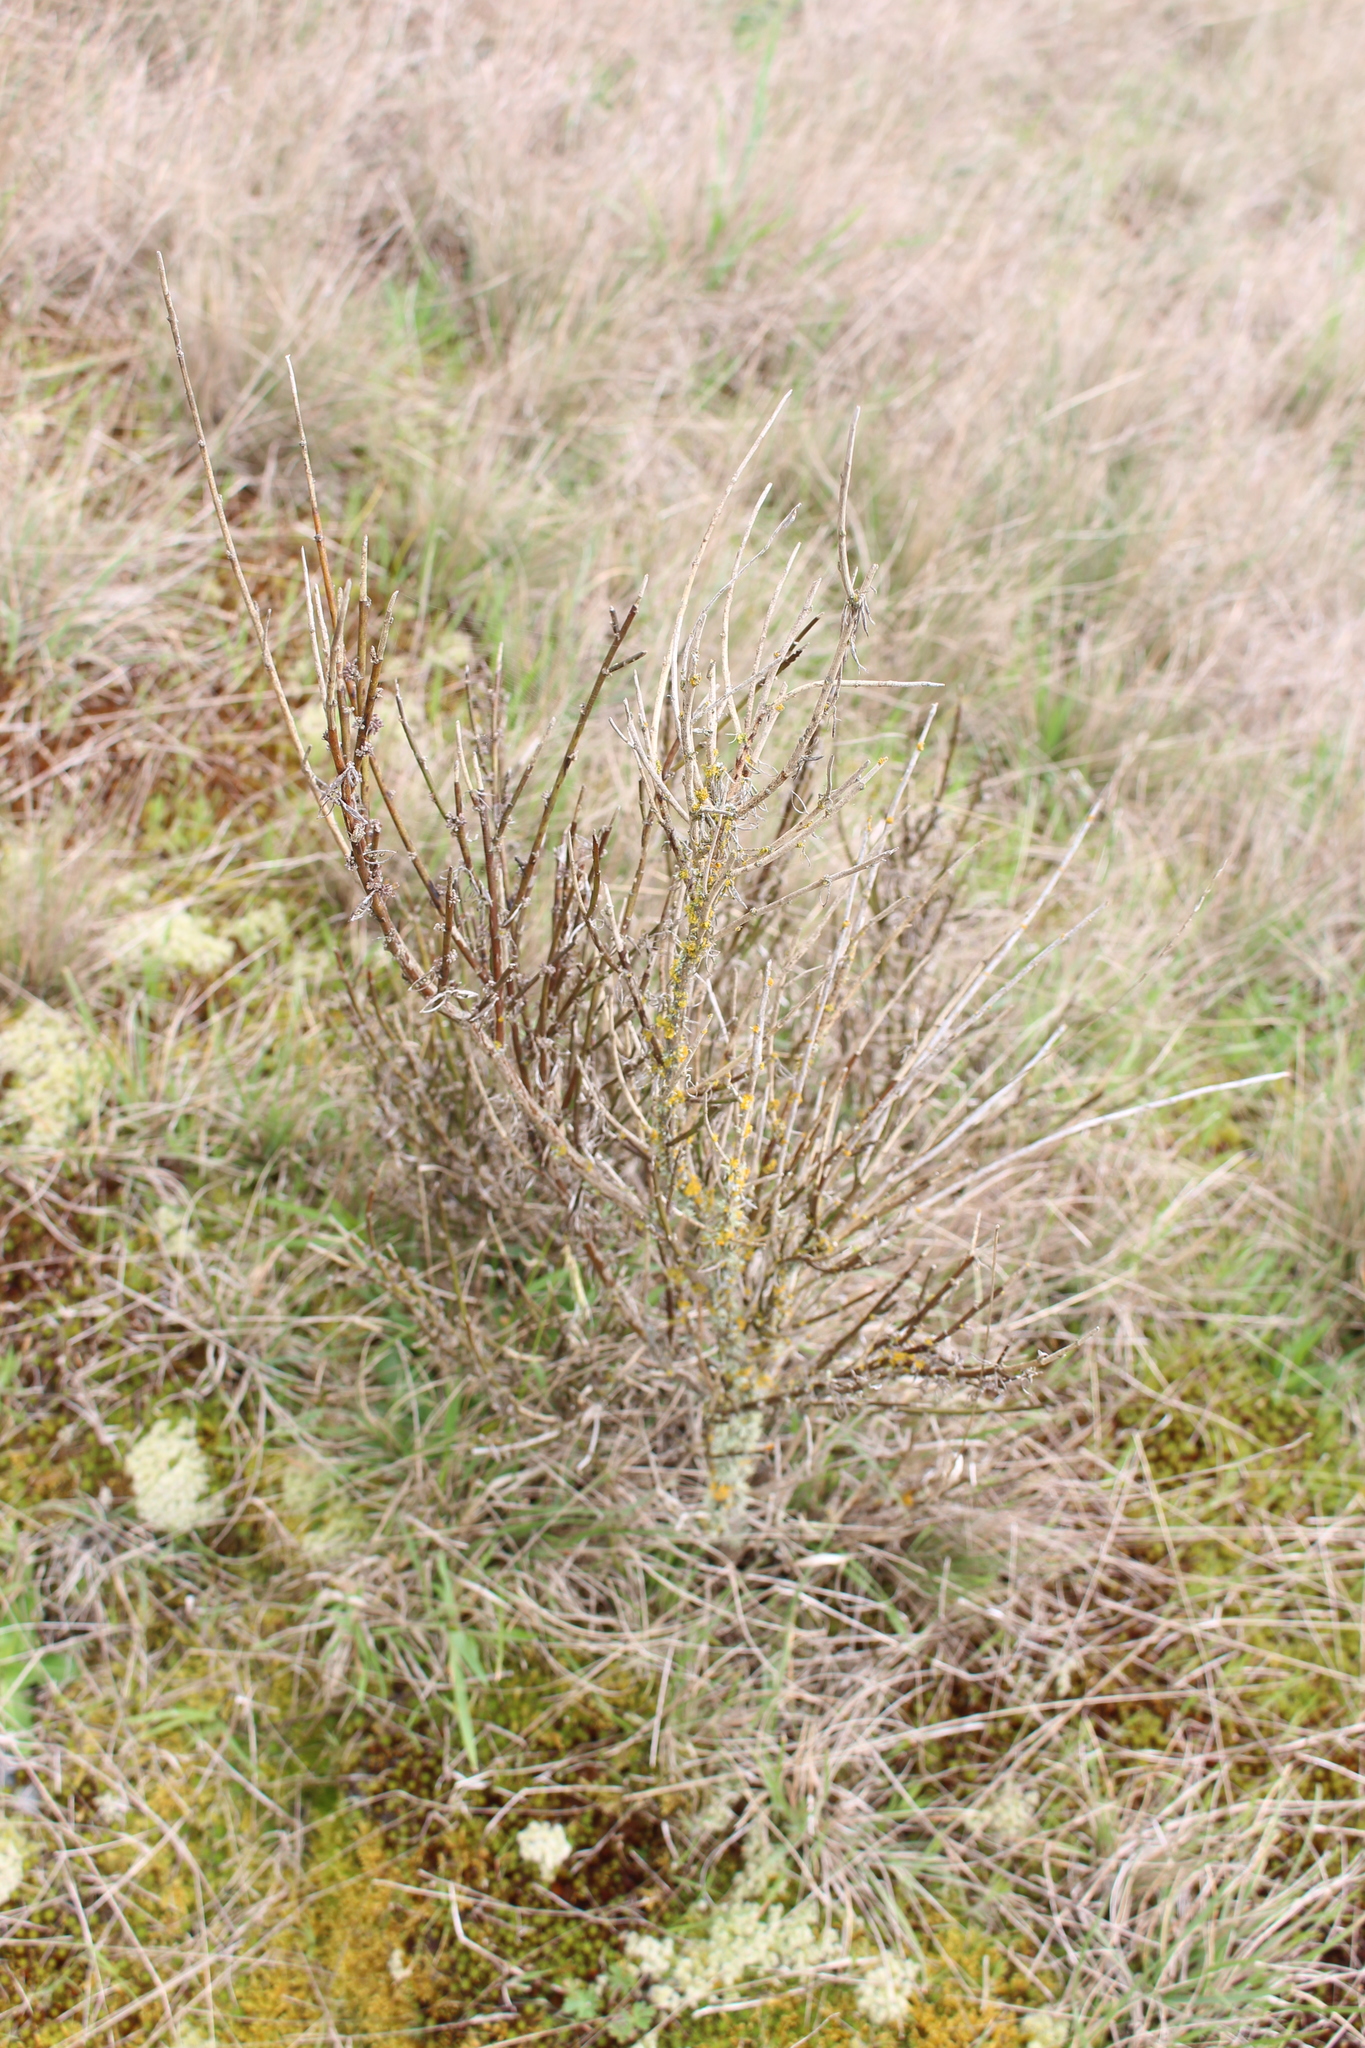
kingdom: Plantae
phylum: Tracheophyta
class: Magnoliopsida
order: Fabales
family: Fabaceae
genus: Carmichaelia
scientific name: Carmichaelia australis
